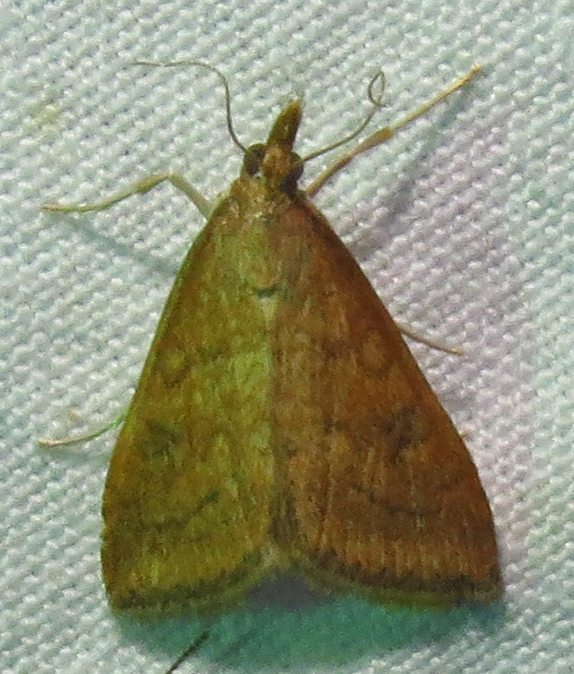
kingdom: Animalia
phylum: Arthropoda
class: Insecta
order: Lepidoptera
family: Crambidae
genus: Udea
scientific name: Udea rubigalis
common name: Celery leaftier moth
